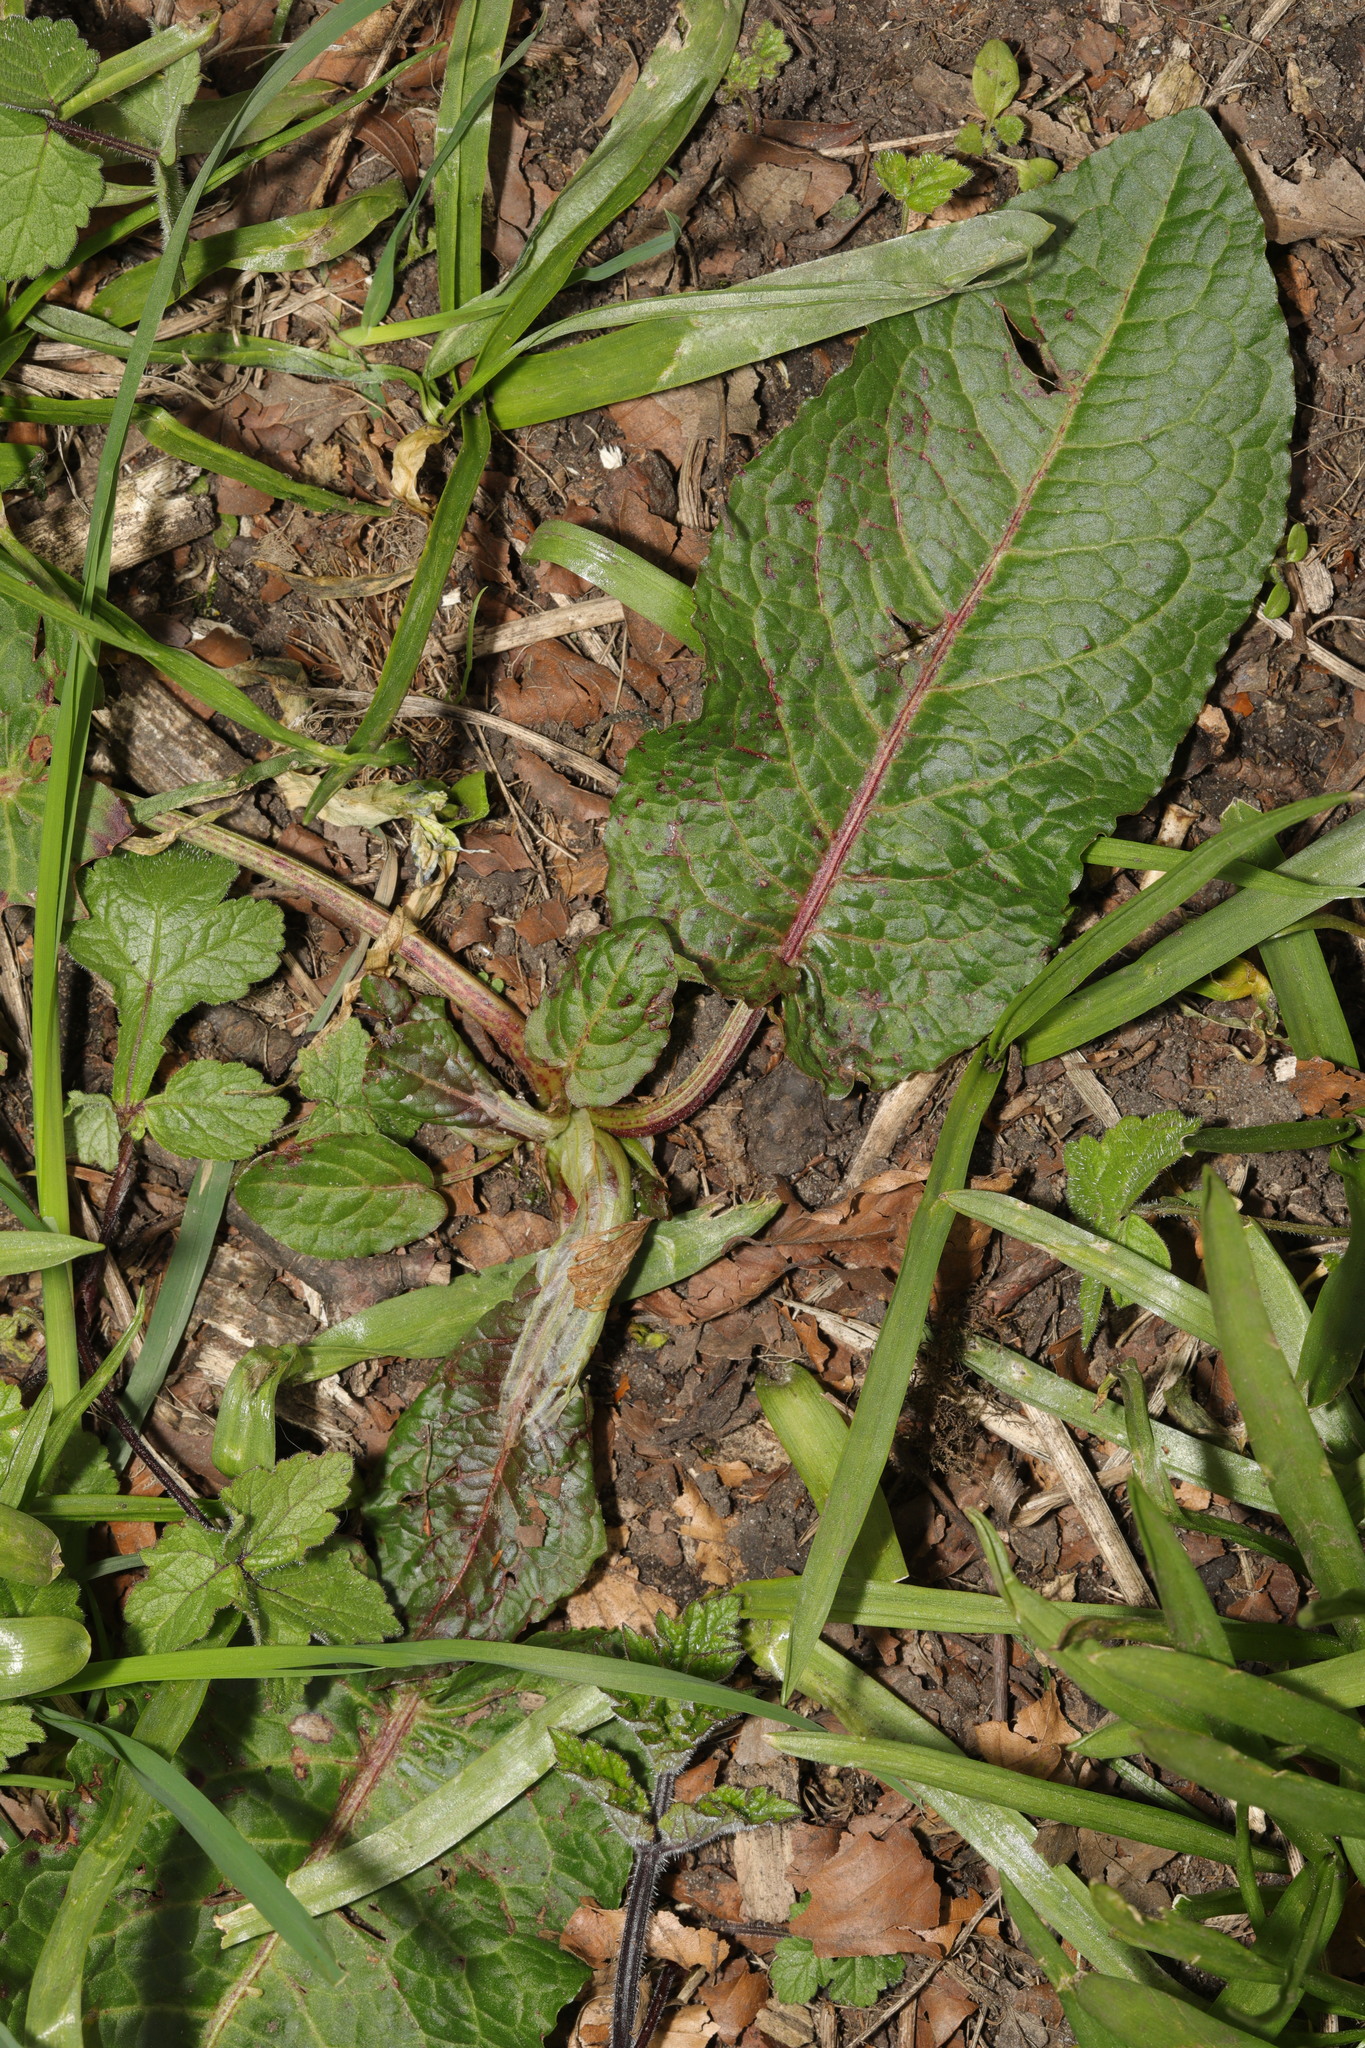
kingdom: Plantae
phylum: Tracheophyta
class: Magnoliopsida
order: Caryophyllales
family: Polygonaceae
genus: Rumex
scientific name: Rumex obtusifolius
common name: Bitter dock
